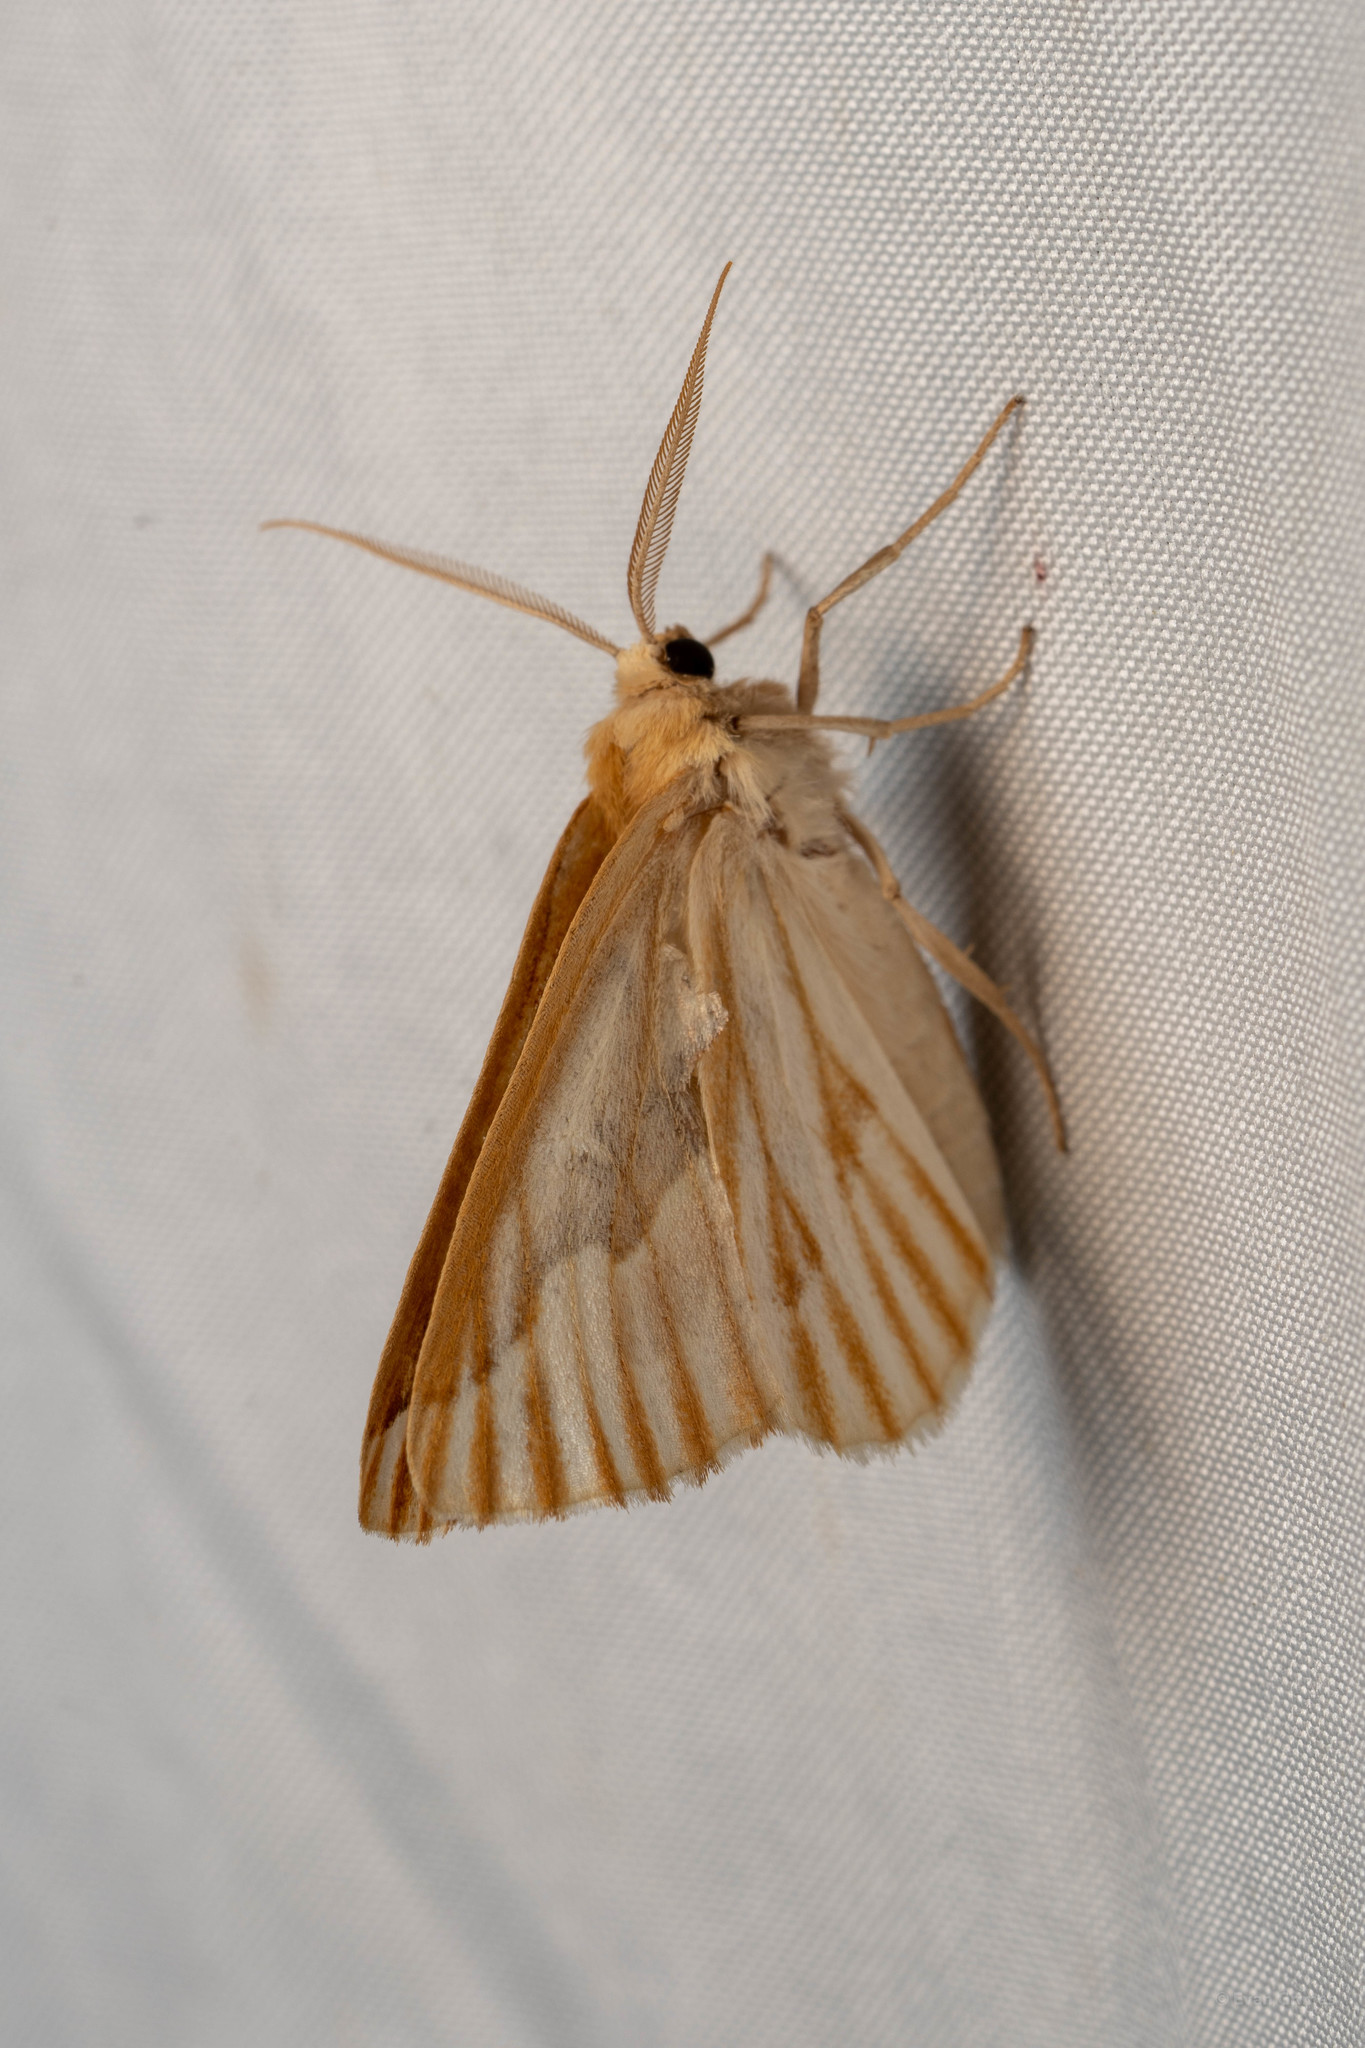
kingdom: Animalia
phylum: Arthropoda
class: Insecta
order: Lepidoptera
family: Geometridae
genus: Caripeta
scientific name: Caripeta piniata
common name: Northern pine looper moth
